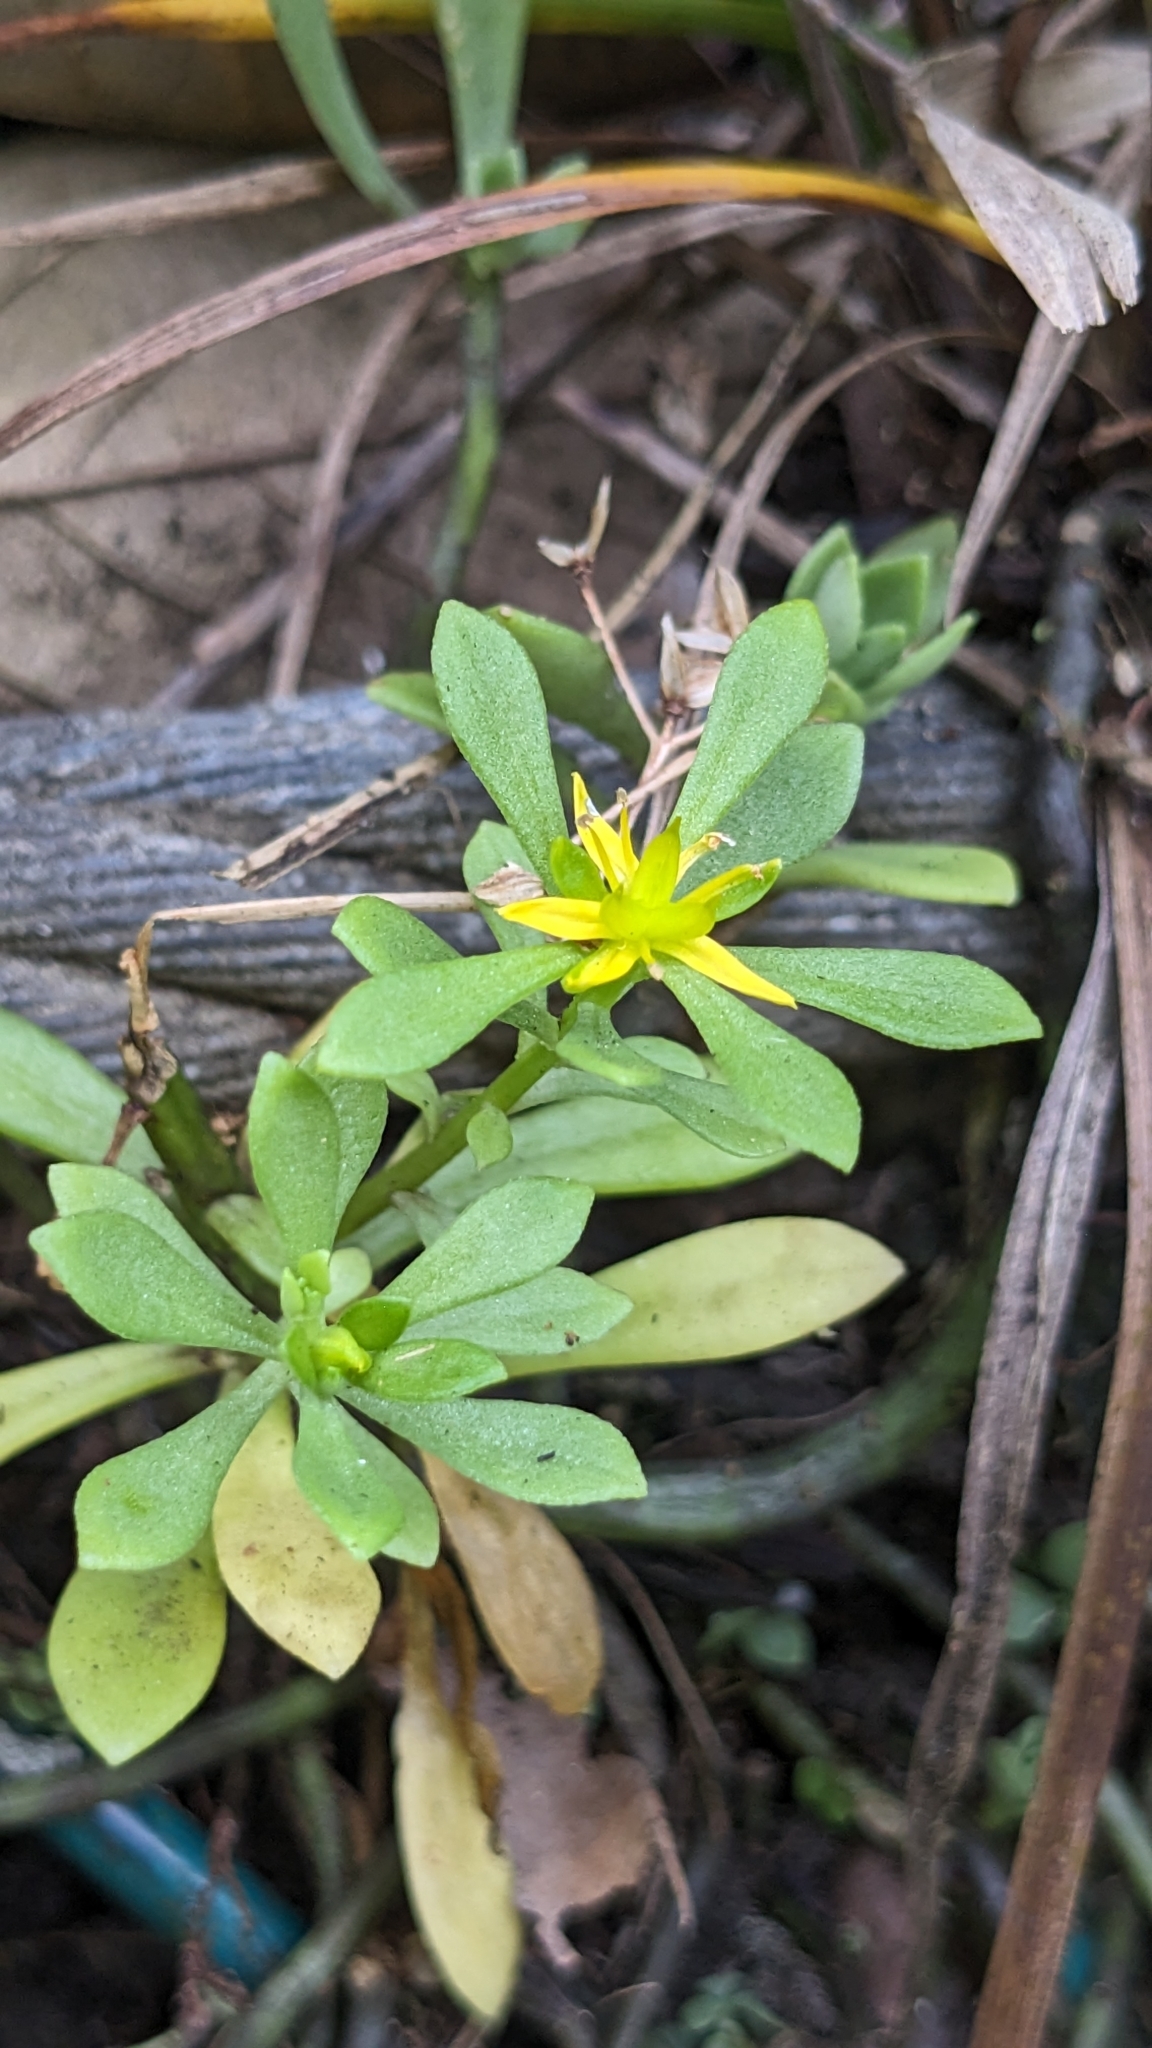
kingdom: Plantae
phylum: Tracheophyta
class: Magnoliopsida
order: Saxifragales
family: Crassulaceae
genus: Sedum
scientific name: Sedum sekiteiense
